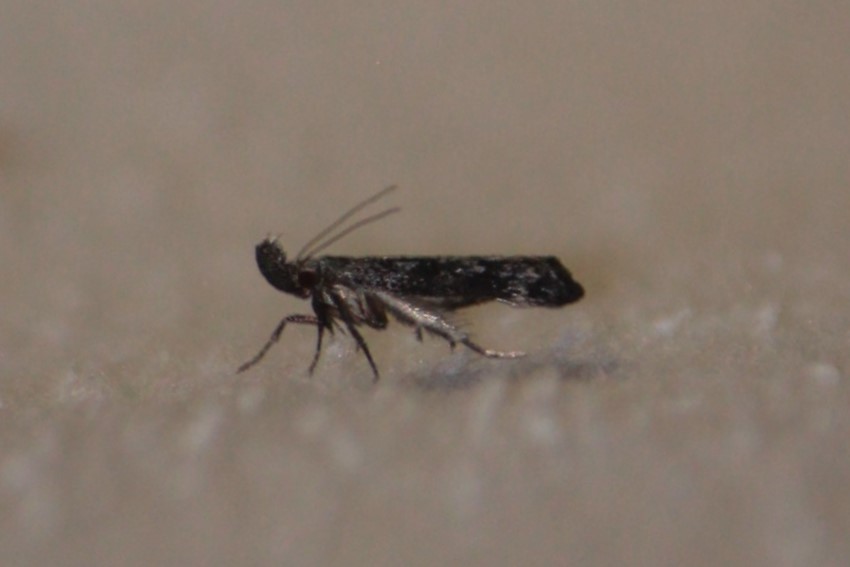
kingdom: Animalia
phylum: Arthropoda
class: Insecta
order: Lepidoptera
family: Gelechiidae
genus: Dichomeris
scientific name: Dichomeris inversella
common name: Inverse dichomeris moth
